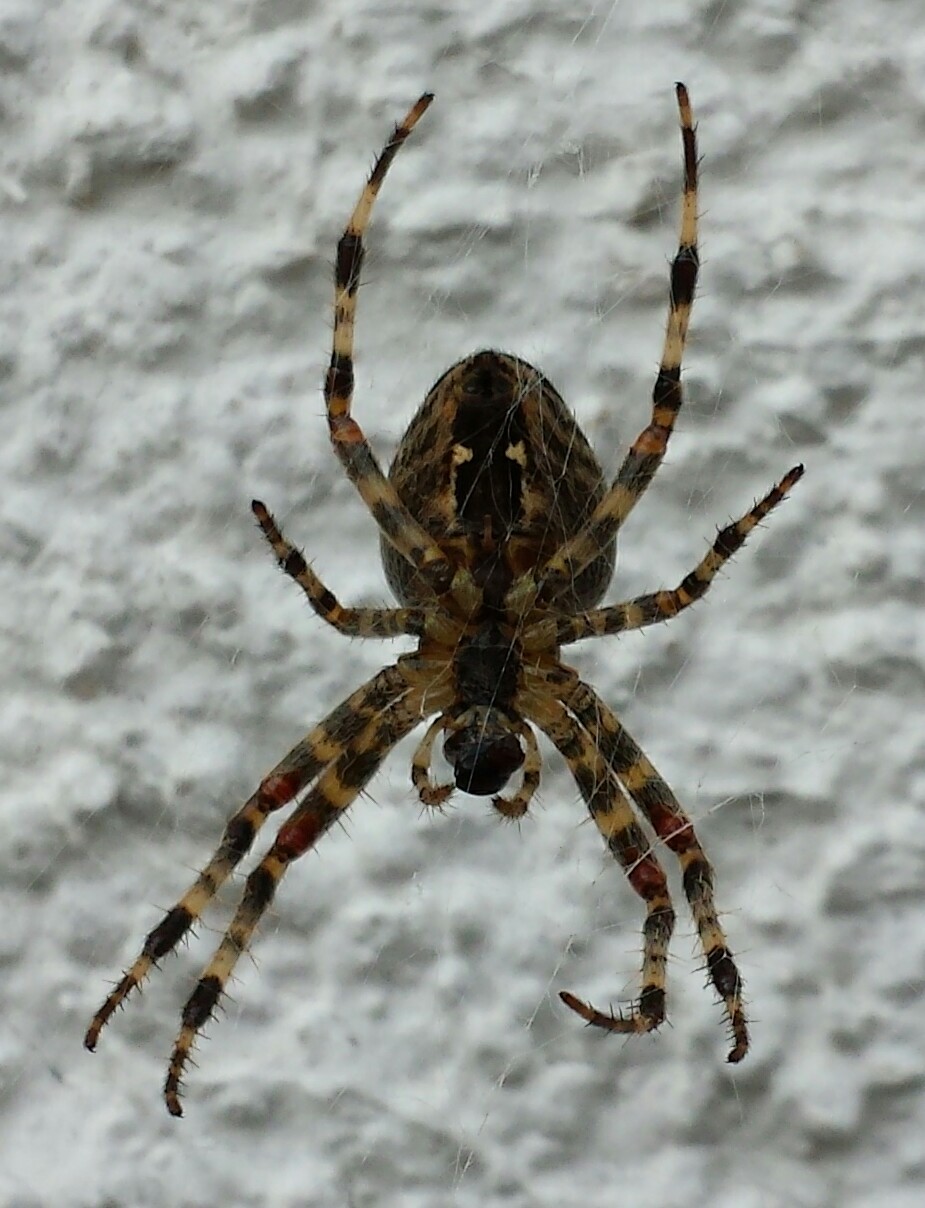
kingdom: Animalia
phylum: Arthropoda
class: Arachnida
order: Araneae
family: Araneidae
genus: Araneus
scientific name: Araneus diadematus
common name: Cross orbweaver
